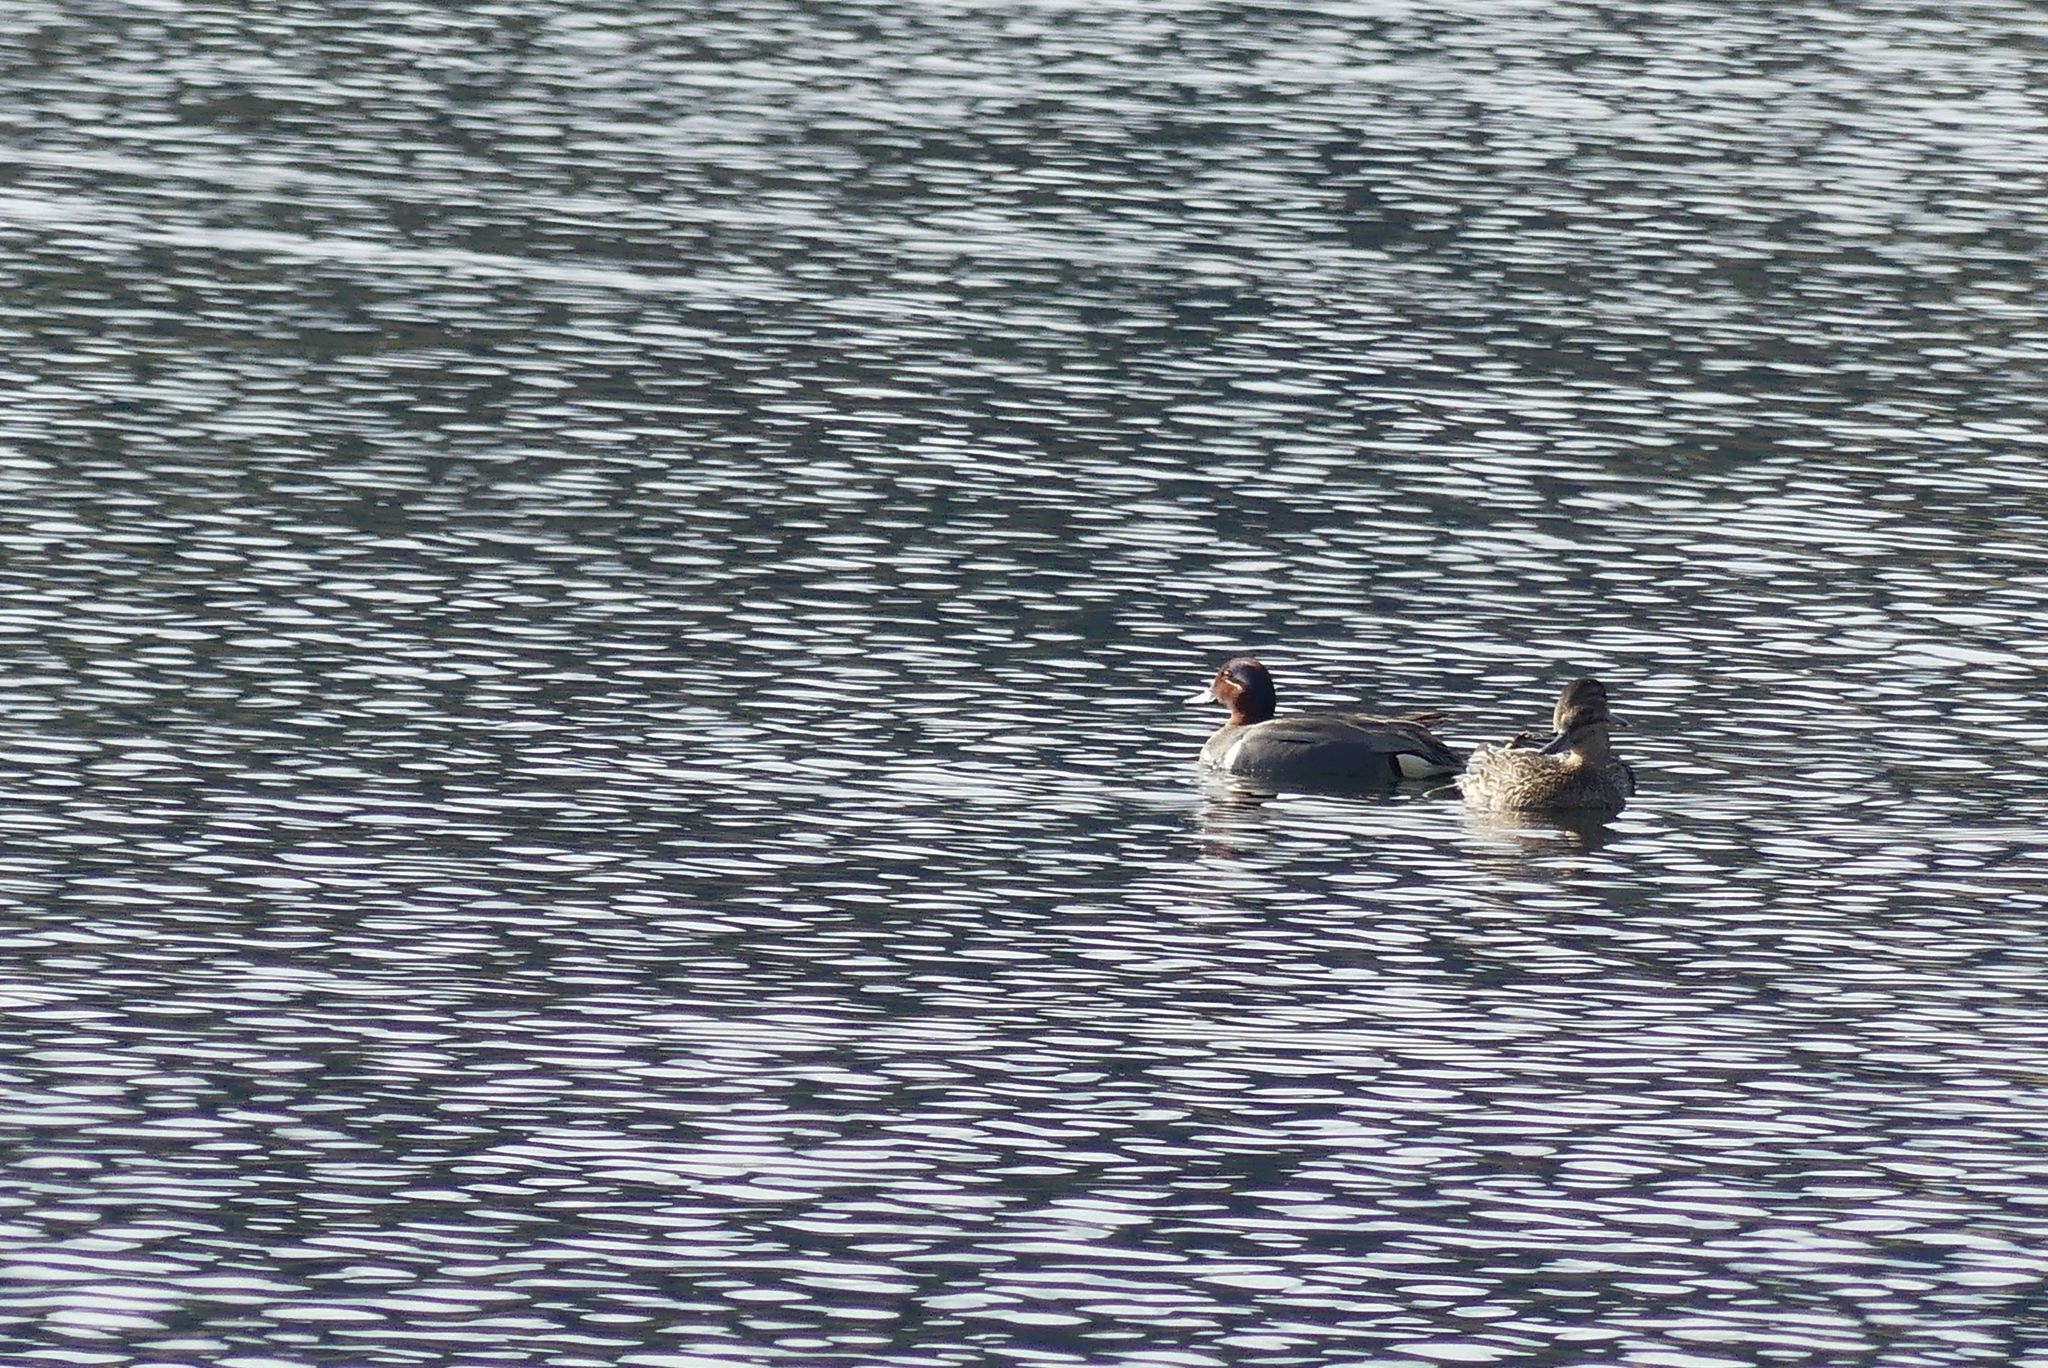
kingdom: Animalia
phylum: Chordata
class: Aves
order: Anseriformes
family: Anatidae
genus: Anas
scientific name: Anas crecca
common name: Eurasian teal
